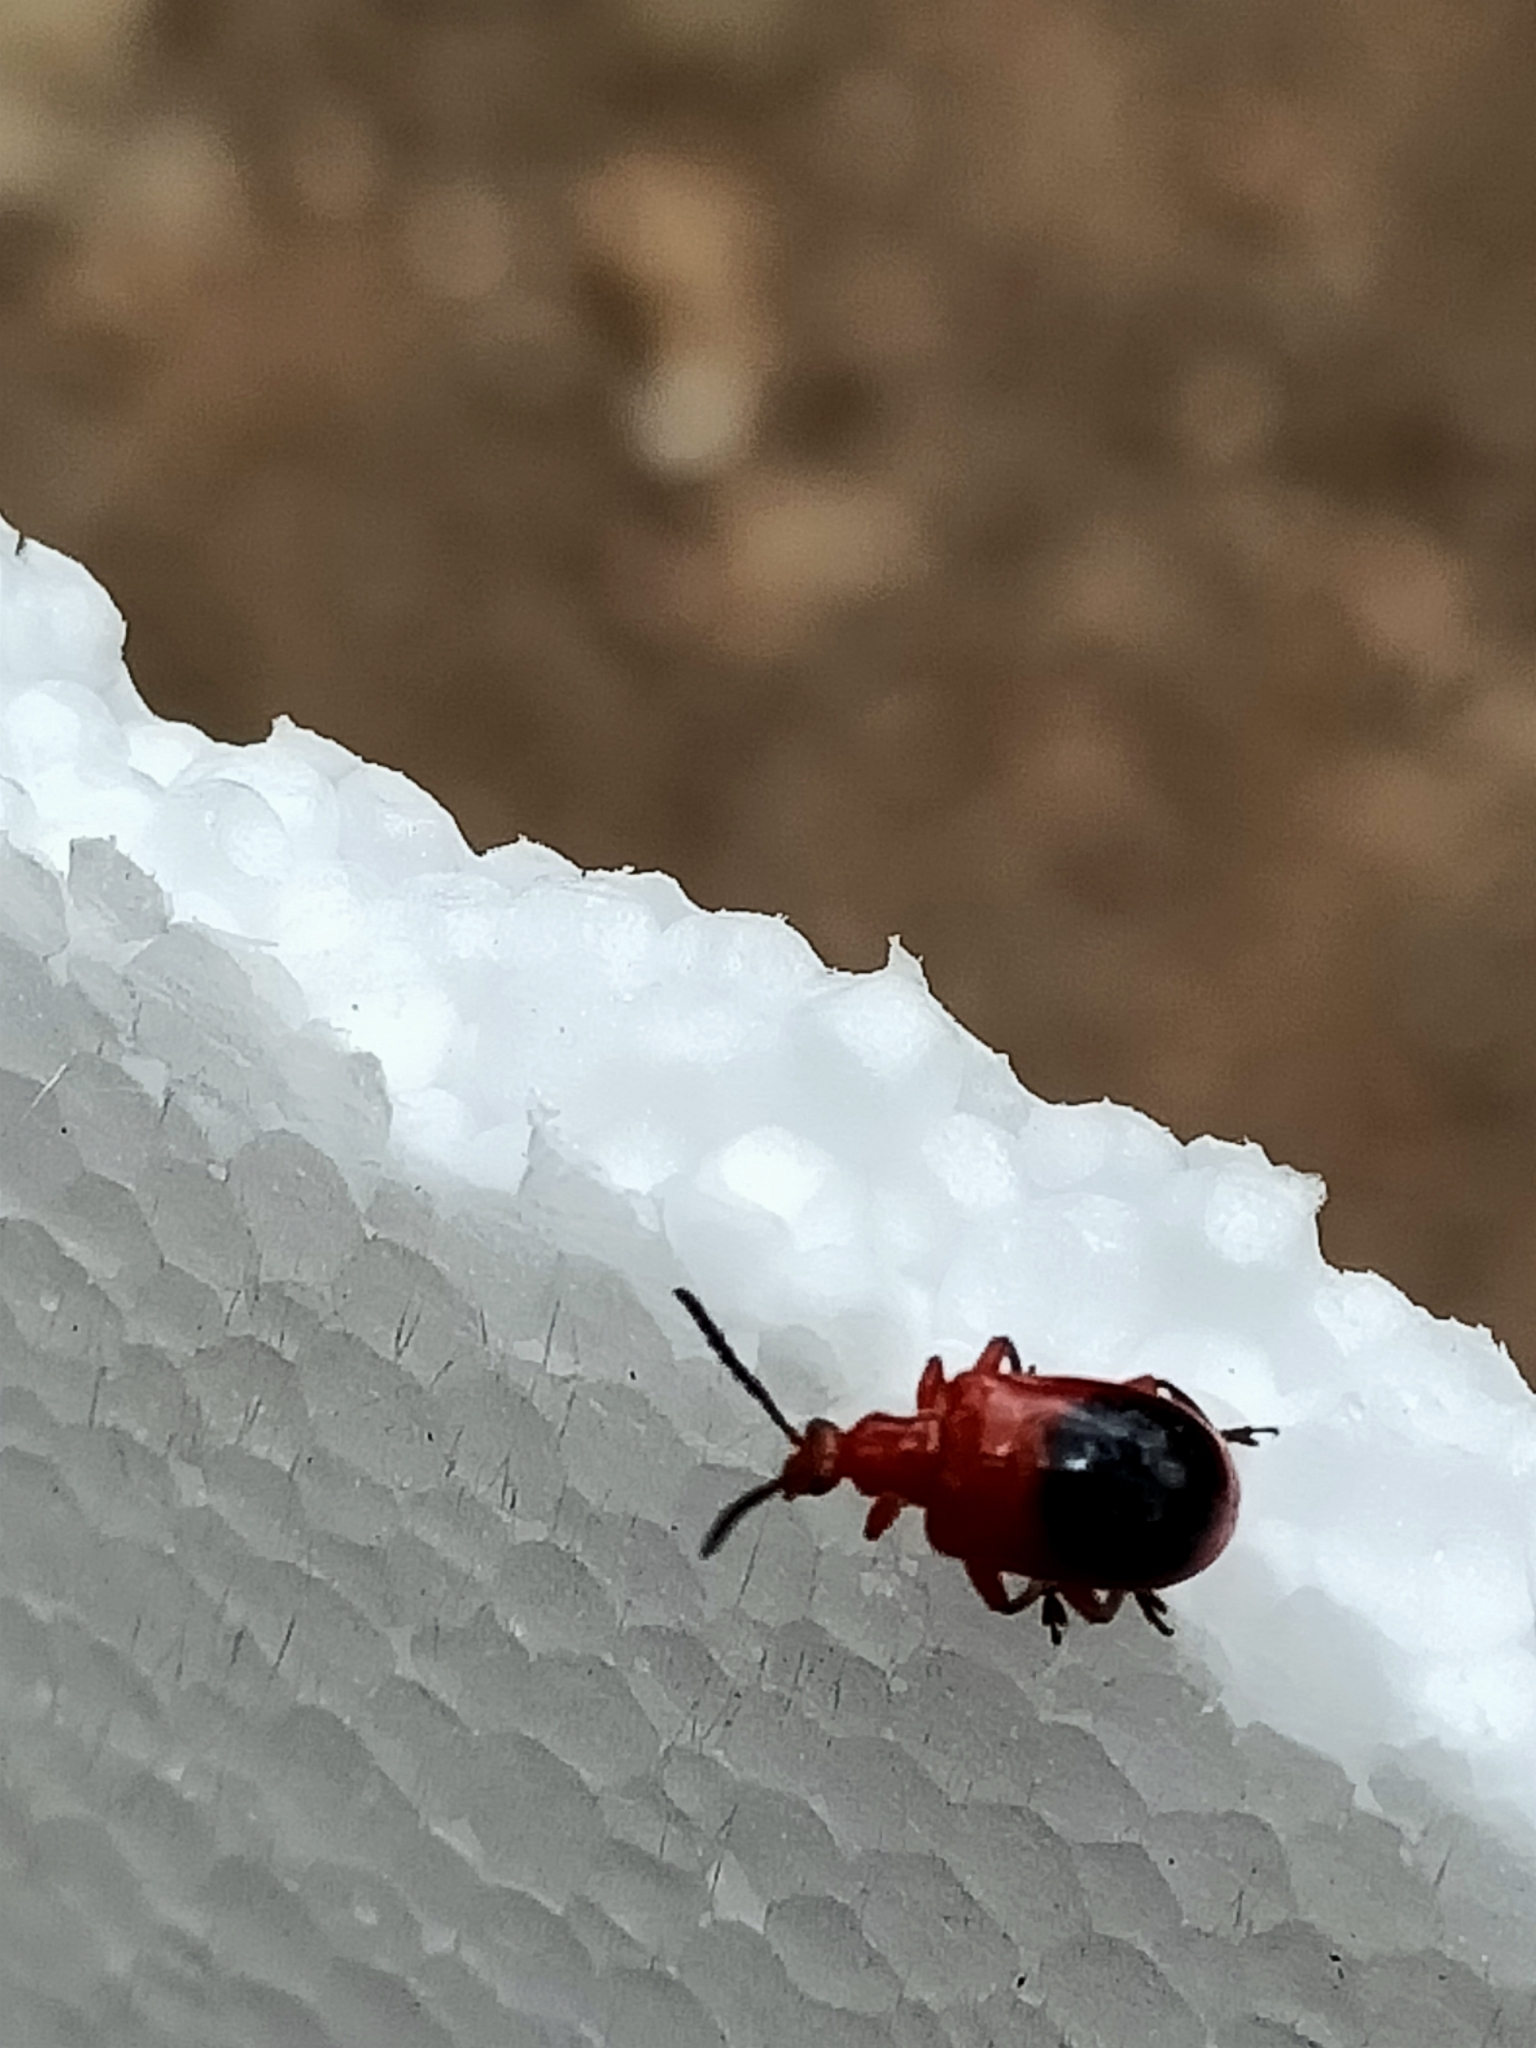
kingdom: Animalia
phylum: Arthropoda
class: Insecta
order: Coleoptera
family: Chrysomelidae
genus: Lilioceris
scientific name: Lilioceris
